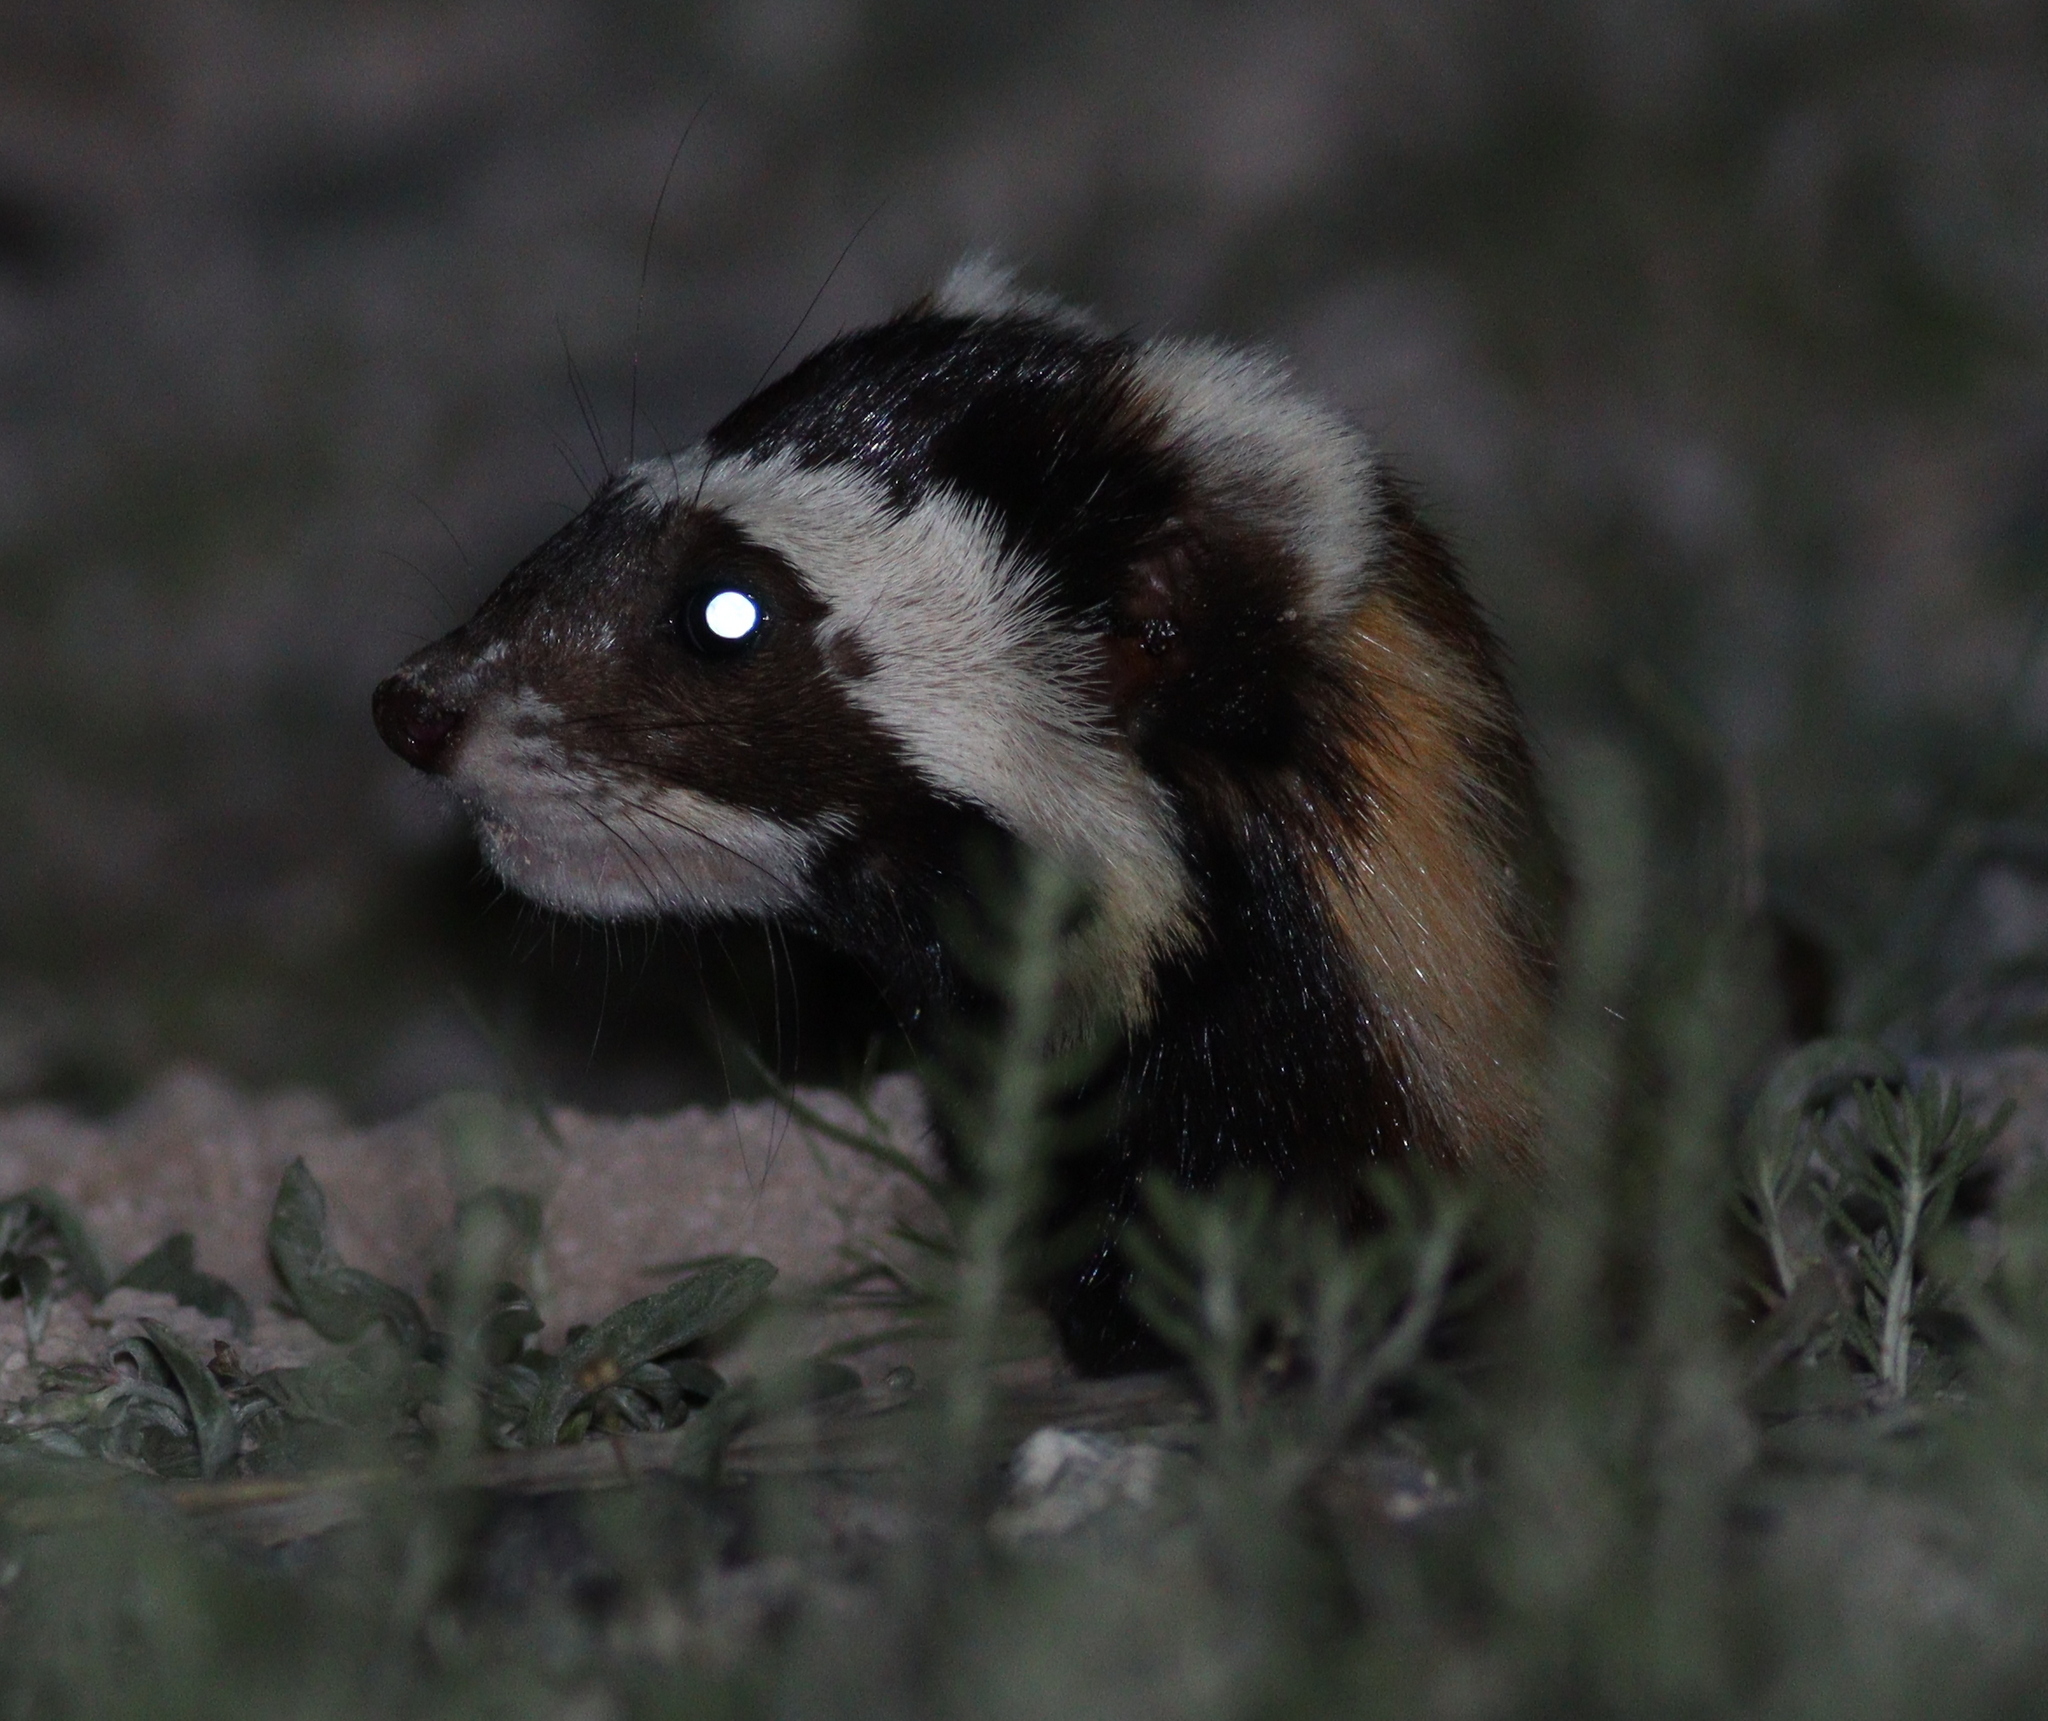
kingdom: Animalia
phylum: Chordata
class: Mammalia
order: Carnivora
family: Mustelidae
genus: Vormela
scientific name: Vormela peregusna
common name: Marbled polecat
